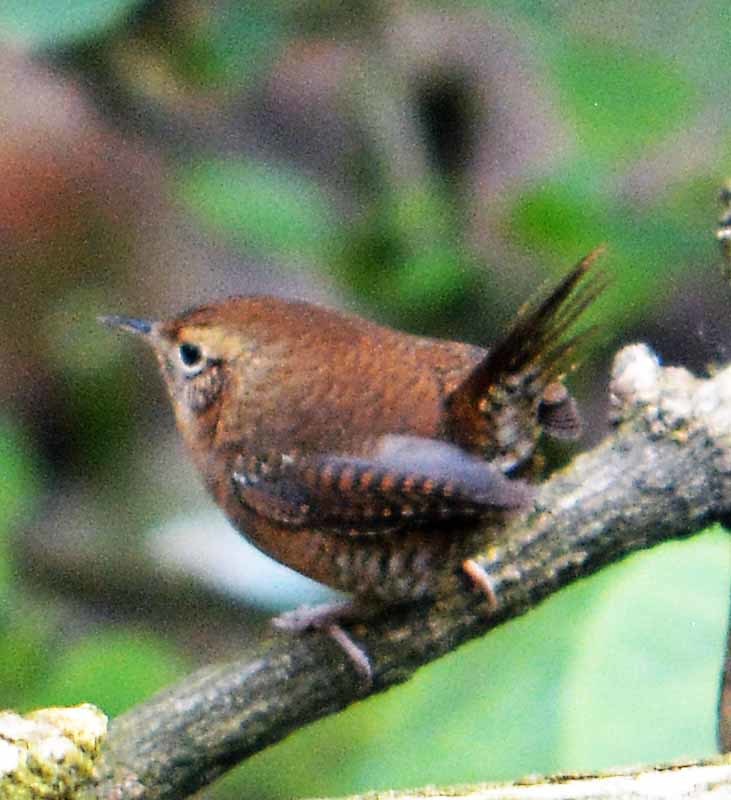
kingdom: Animalia
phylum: Chordata
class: Aves
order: Passeriformes
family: Troglodytidae
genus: Troglodytes
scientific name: Troglodytes aedon
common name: House wren
